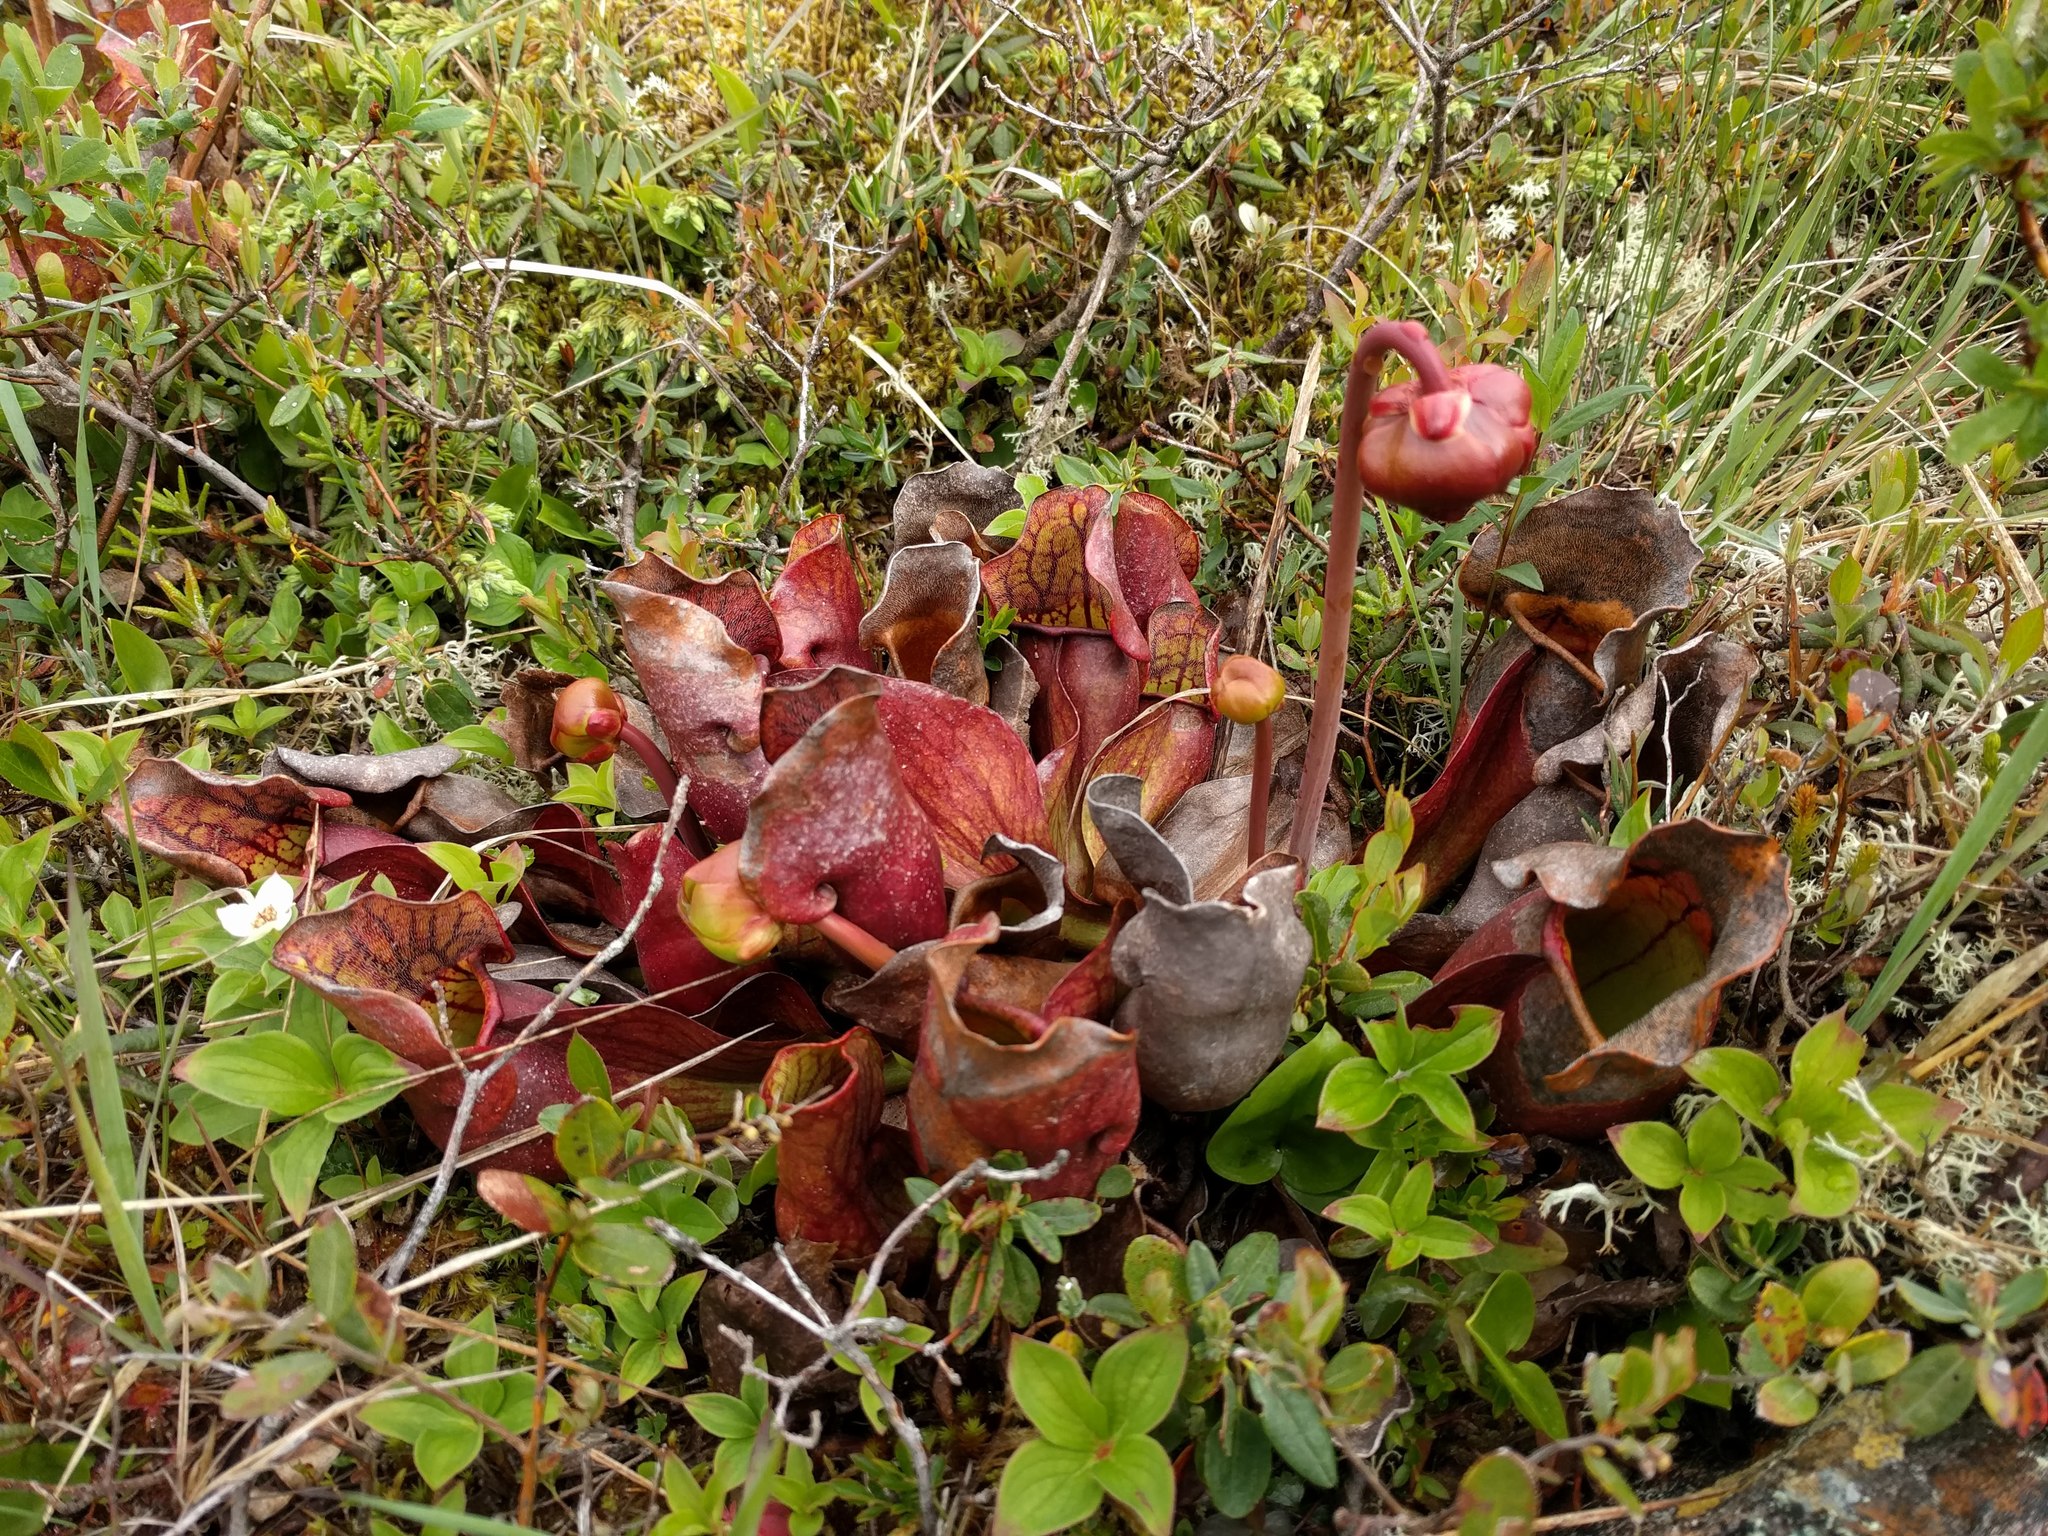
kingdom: Plantae
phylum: Tracheophyta
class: Magnoliopsida
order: Ericales
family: Sarraceniaceae
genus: Sarracenia
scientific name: Sarracenia purpurea
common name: Pitcherplant
